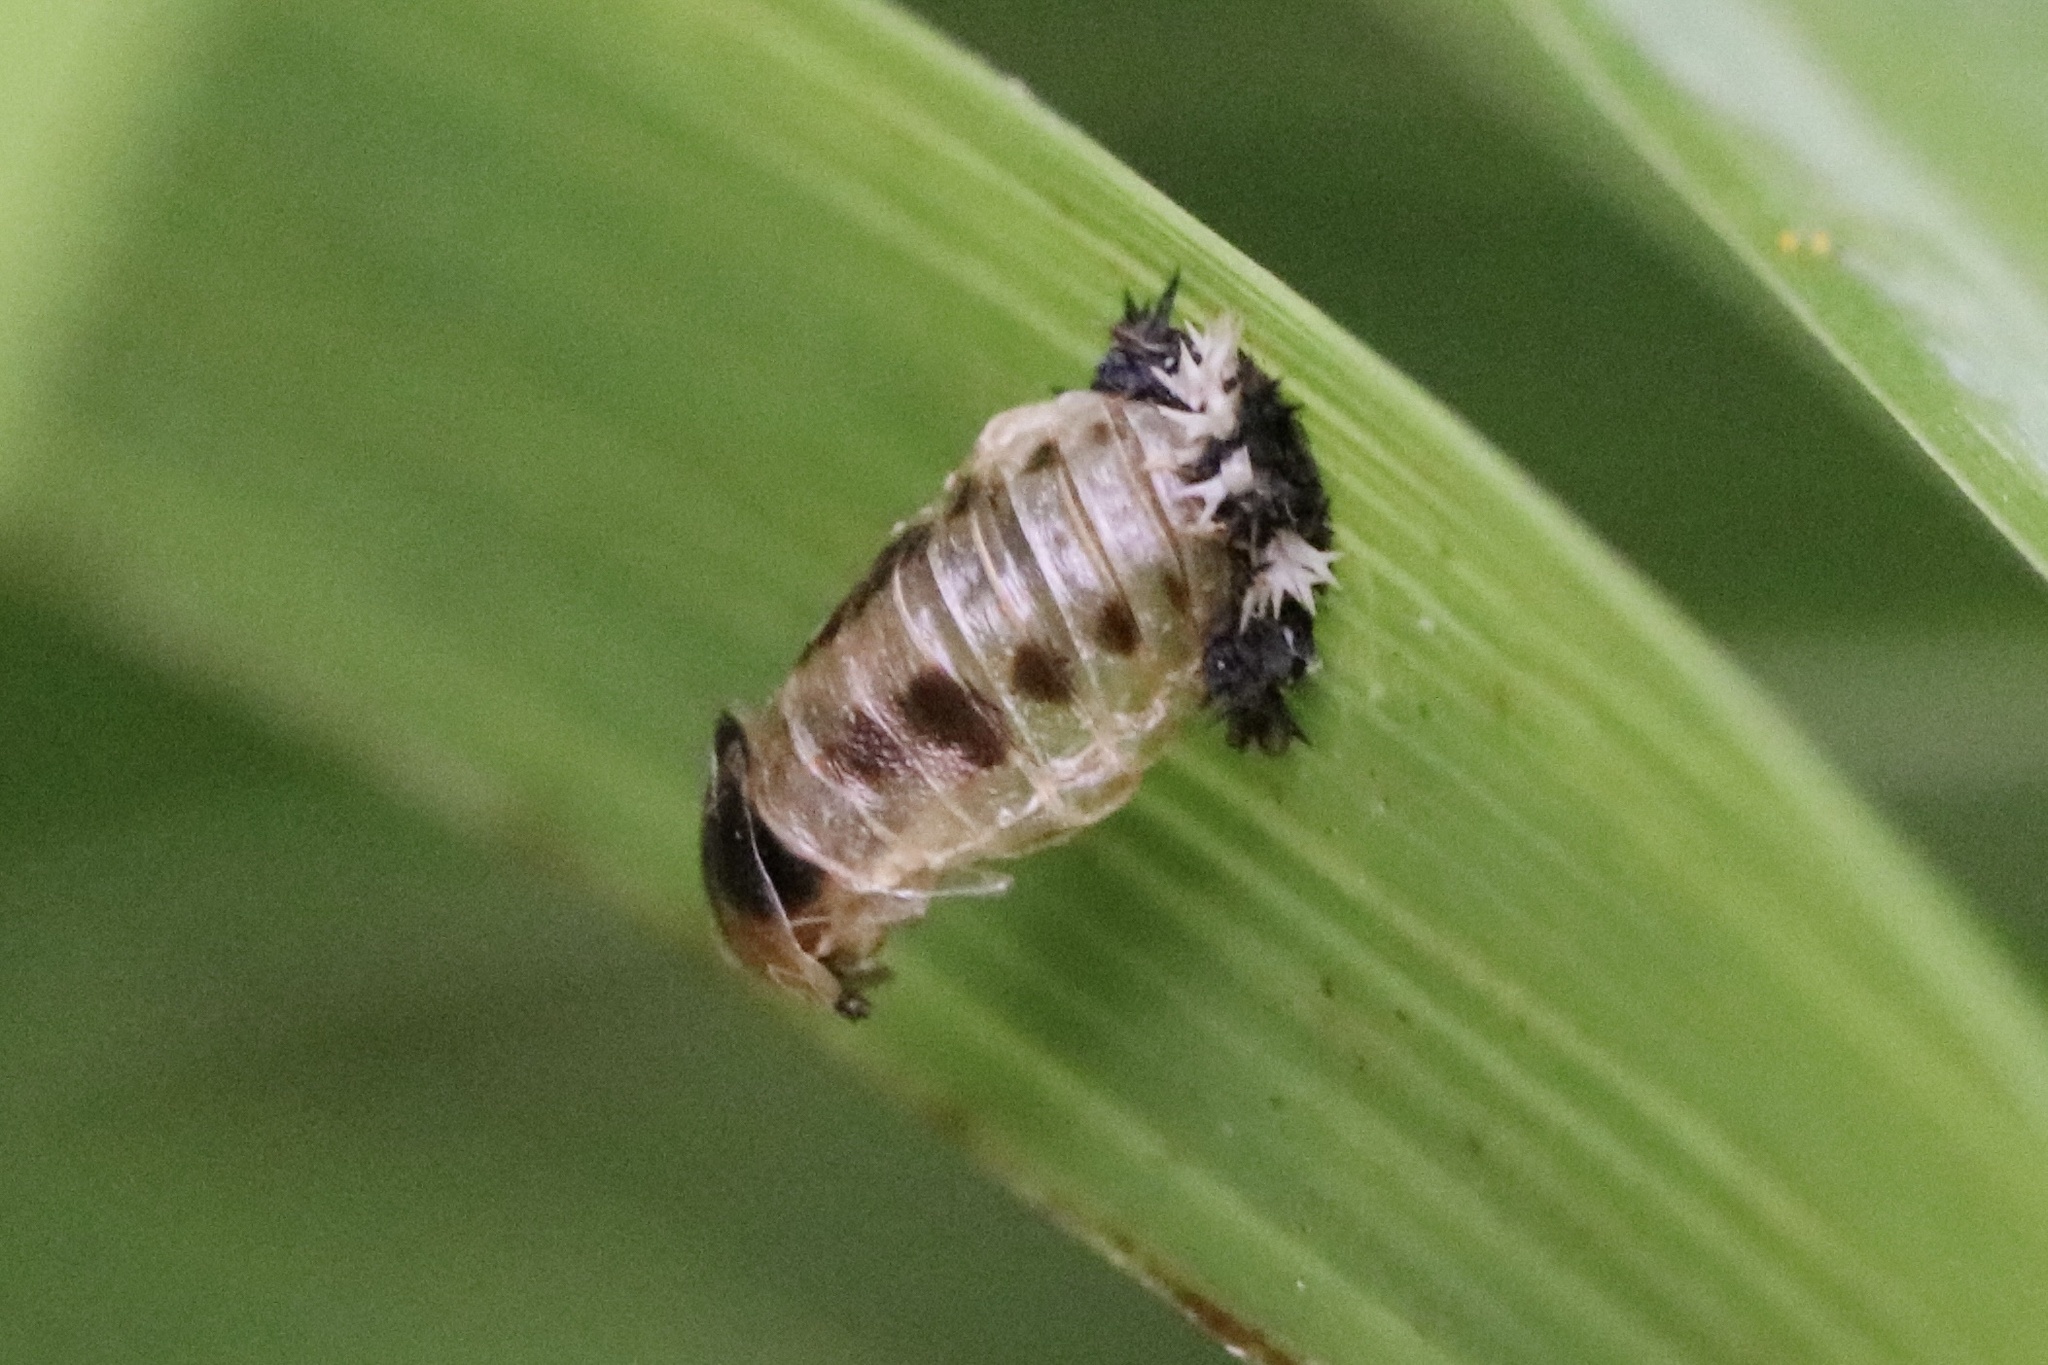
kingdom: Animalia
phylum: Arthropoda
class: Insecta
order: Coleoptera
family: Coccinellidae
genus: Harmonia
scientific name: Harmonia axyridis
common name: Harlequin ladybird
